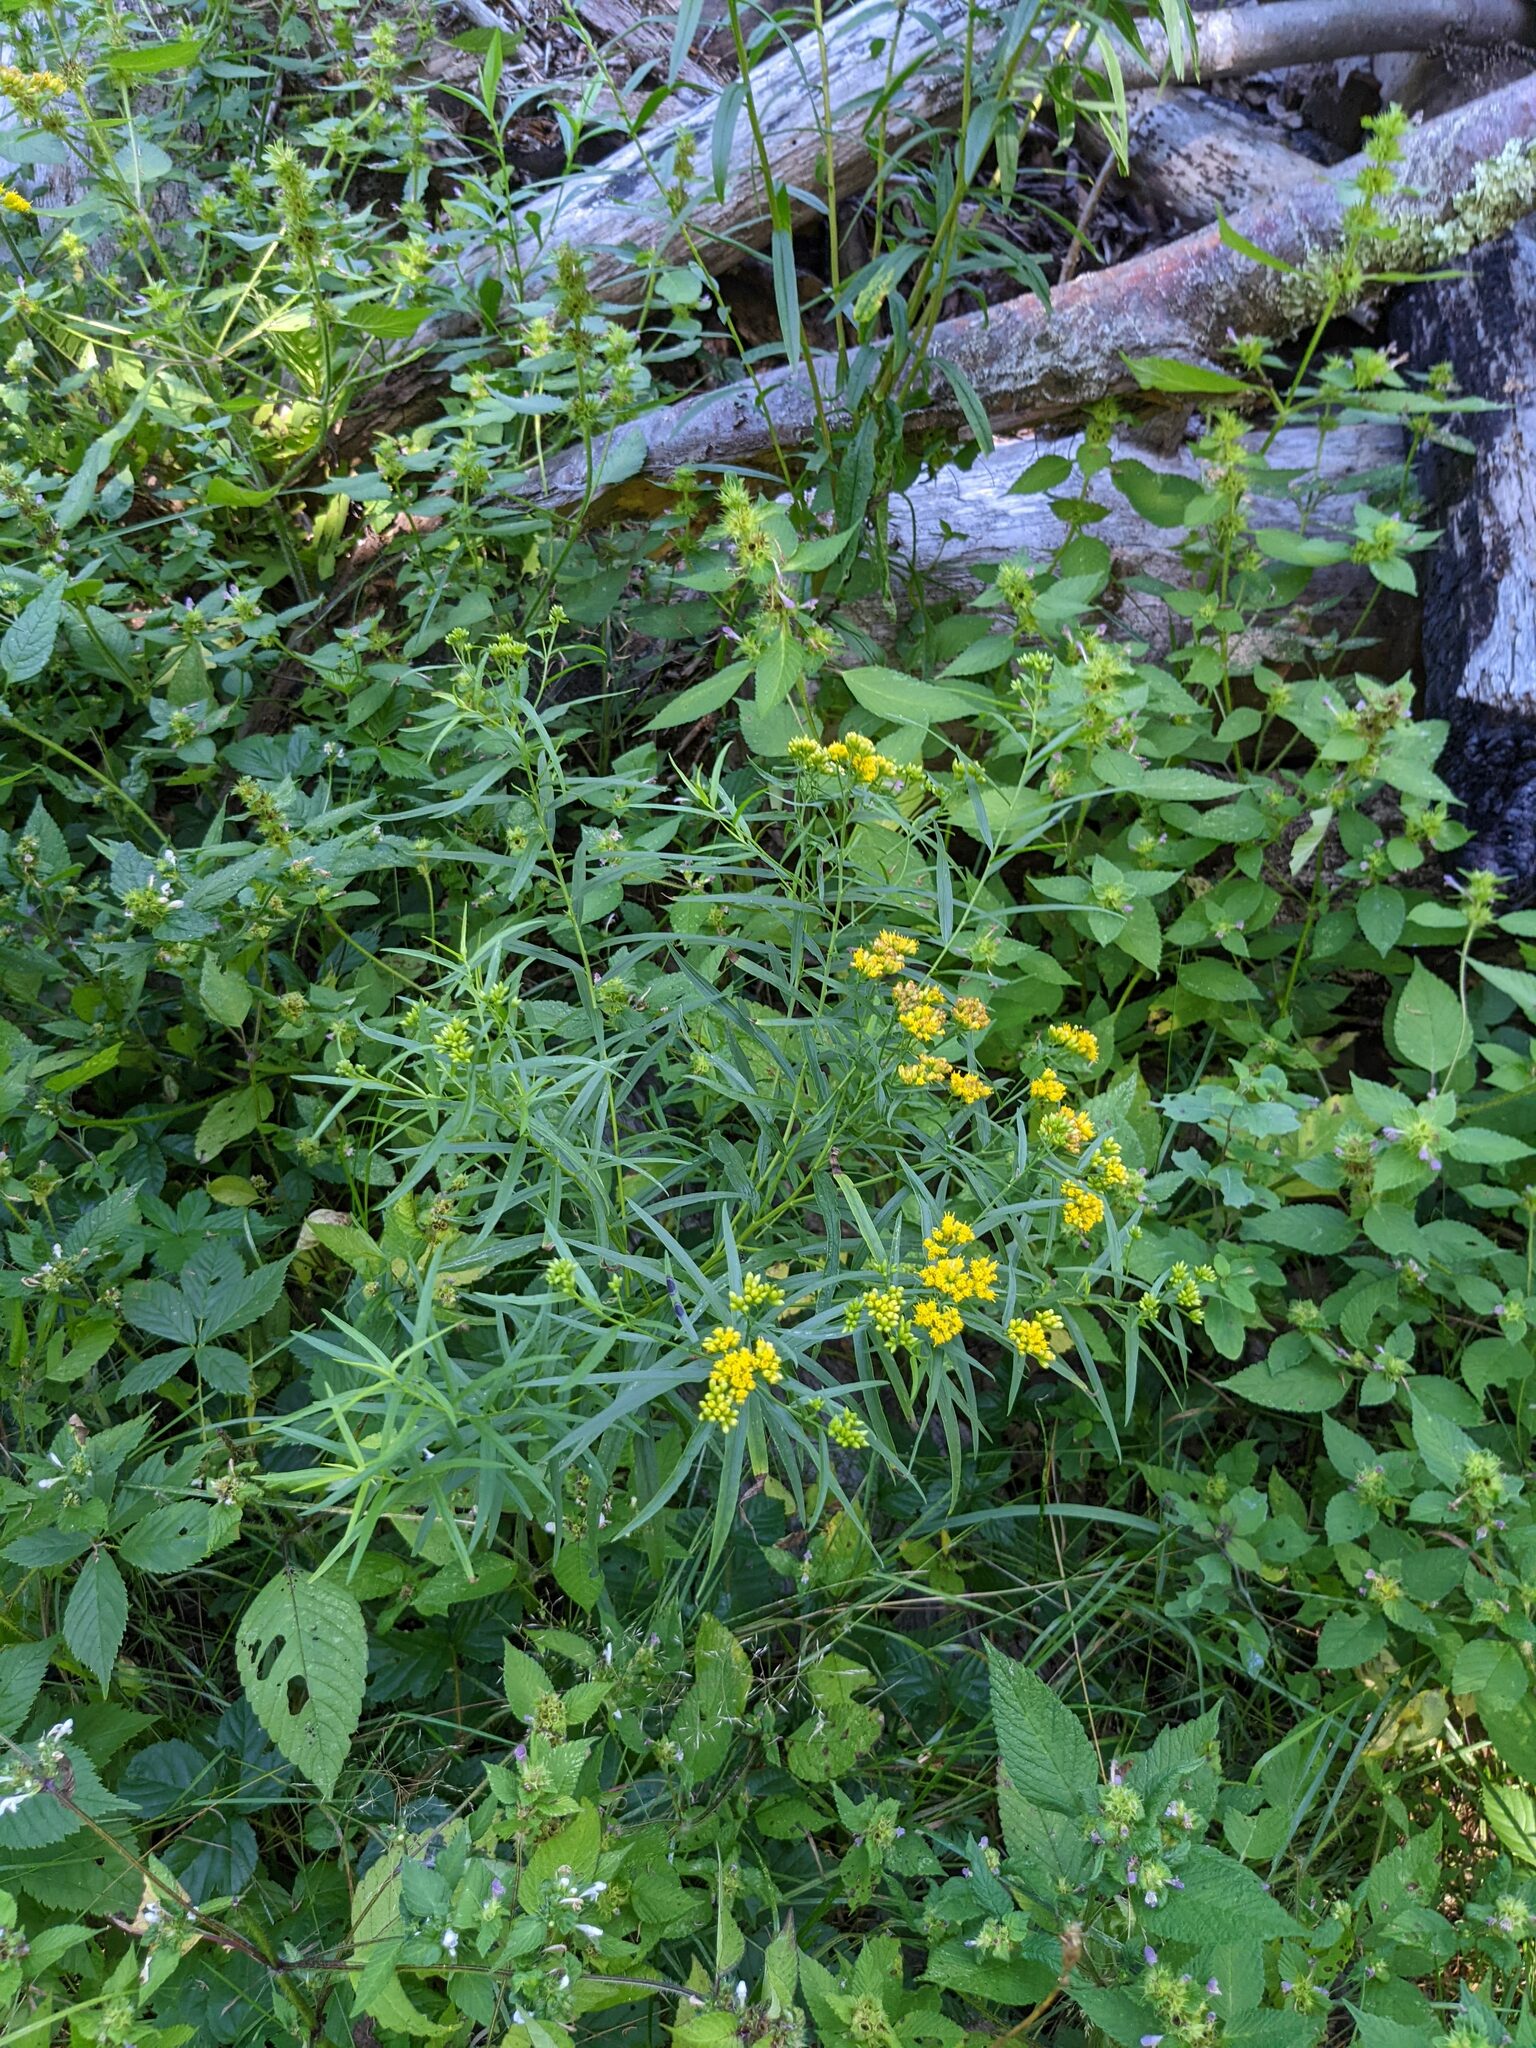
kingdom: Plantae
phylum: Tracheophyta
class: Magnoliopsida
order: Asterales
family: Asteraceae
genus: Euthamia
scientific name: Euthamia graminifolia
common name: Common goldentop
